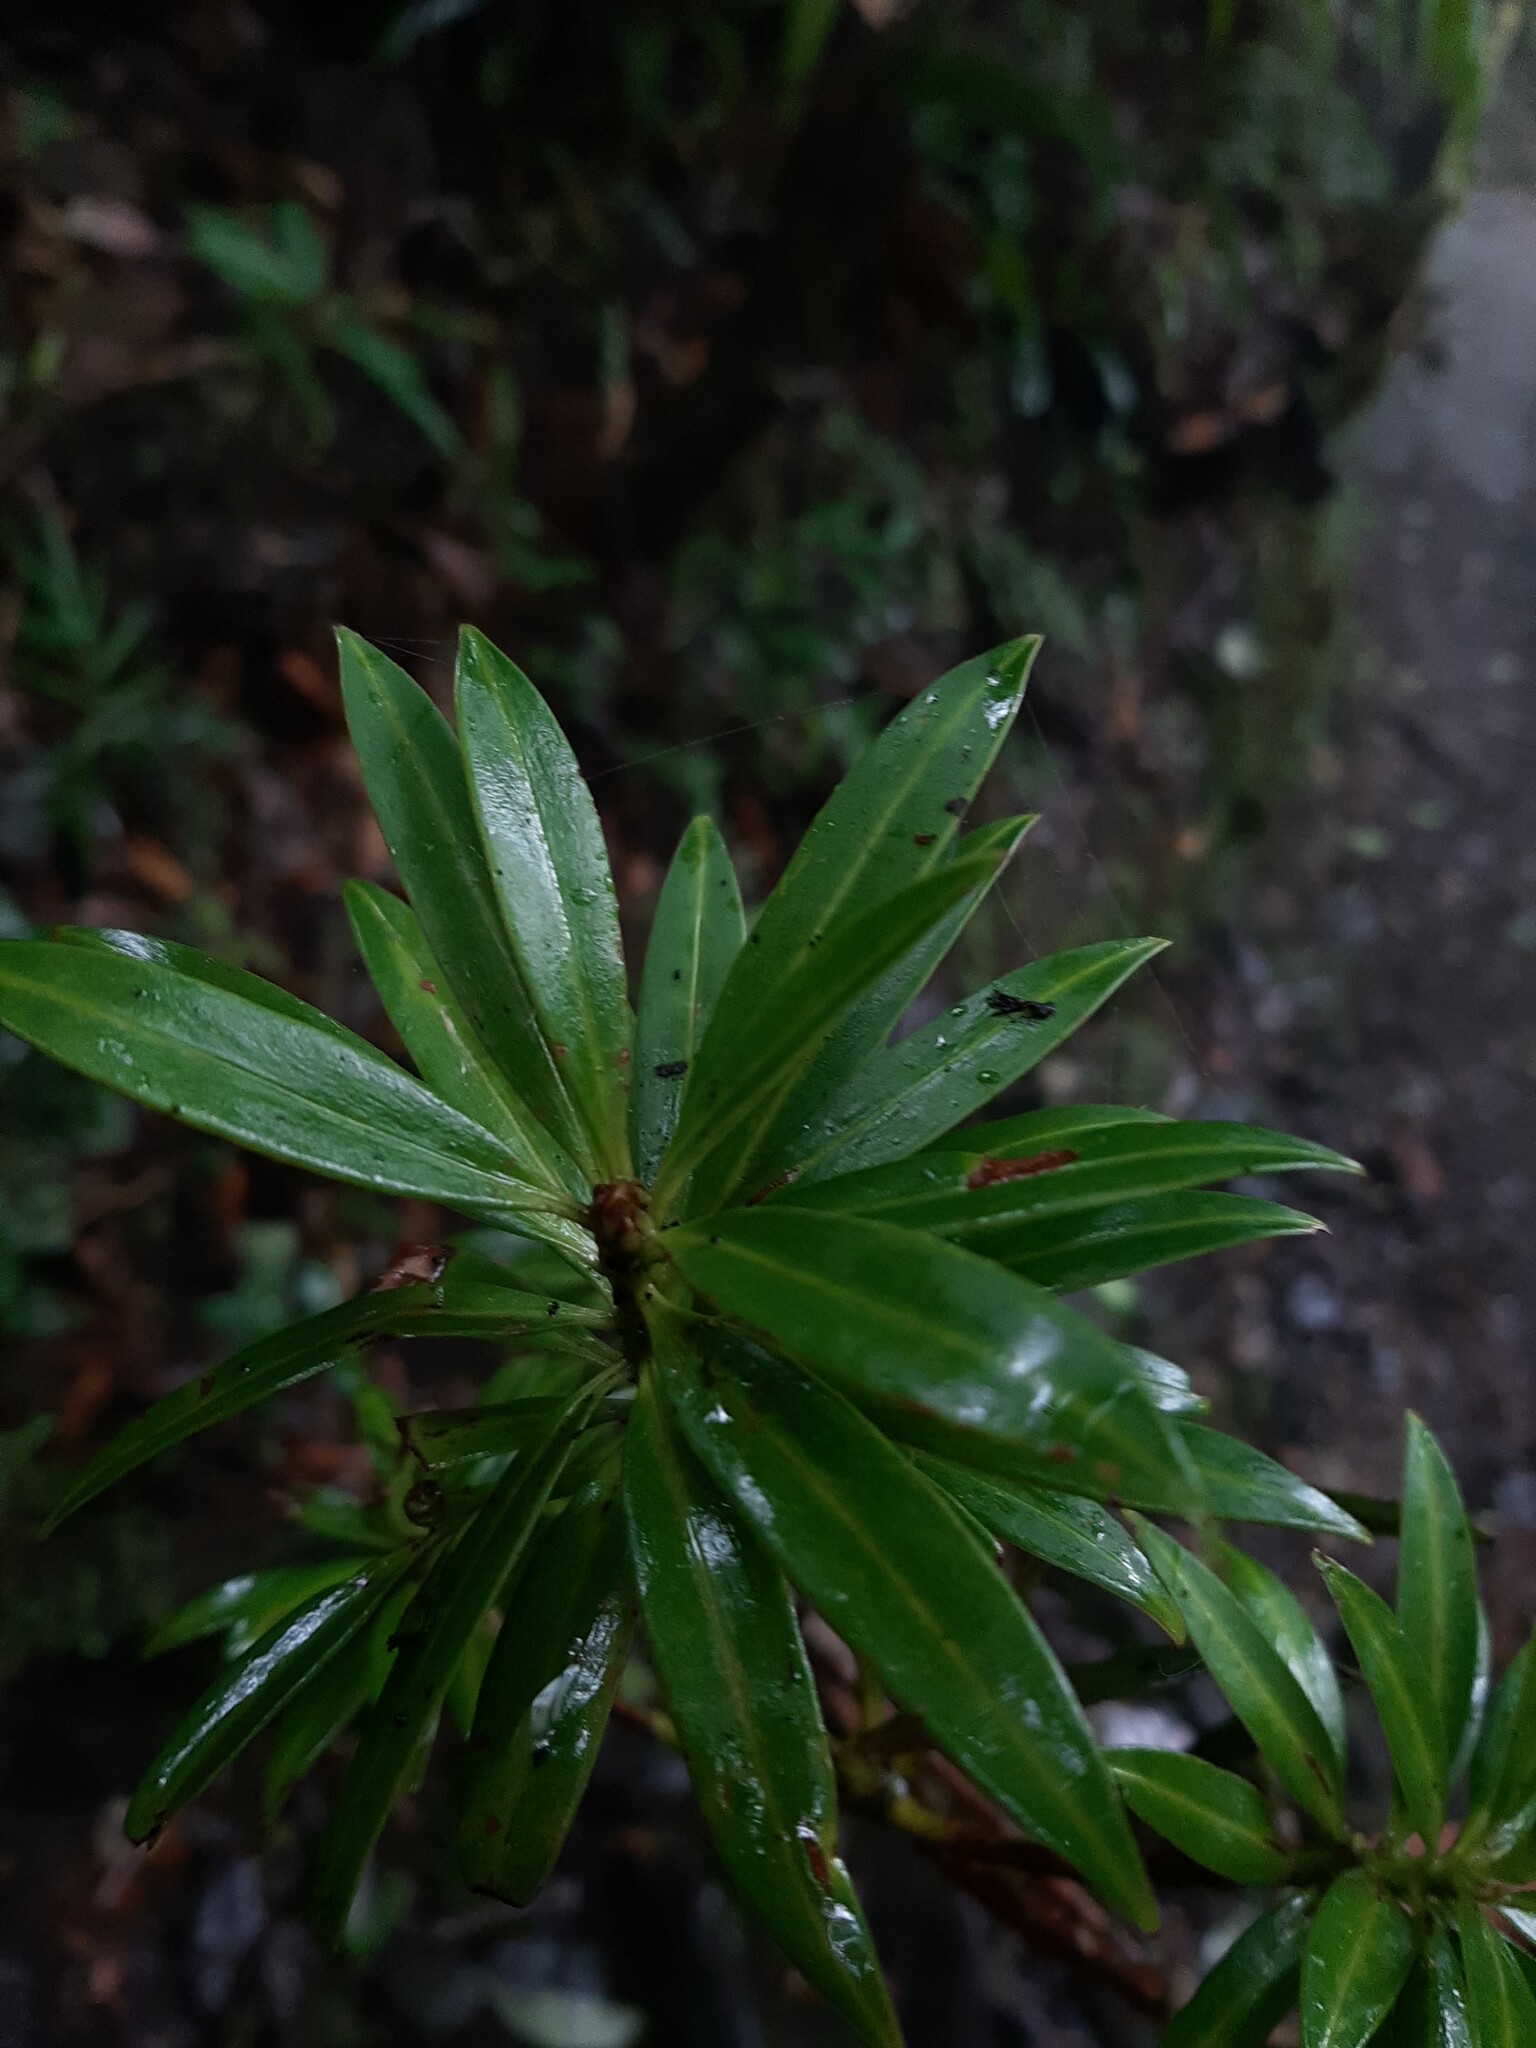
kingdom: Plantae
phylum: Tracheophyta
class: Pinopsida
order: Pinales
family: Podocarpaceae
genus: Podocarpus
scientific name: Podocarpus oleifolius
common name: Olive-leaf podoberry
